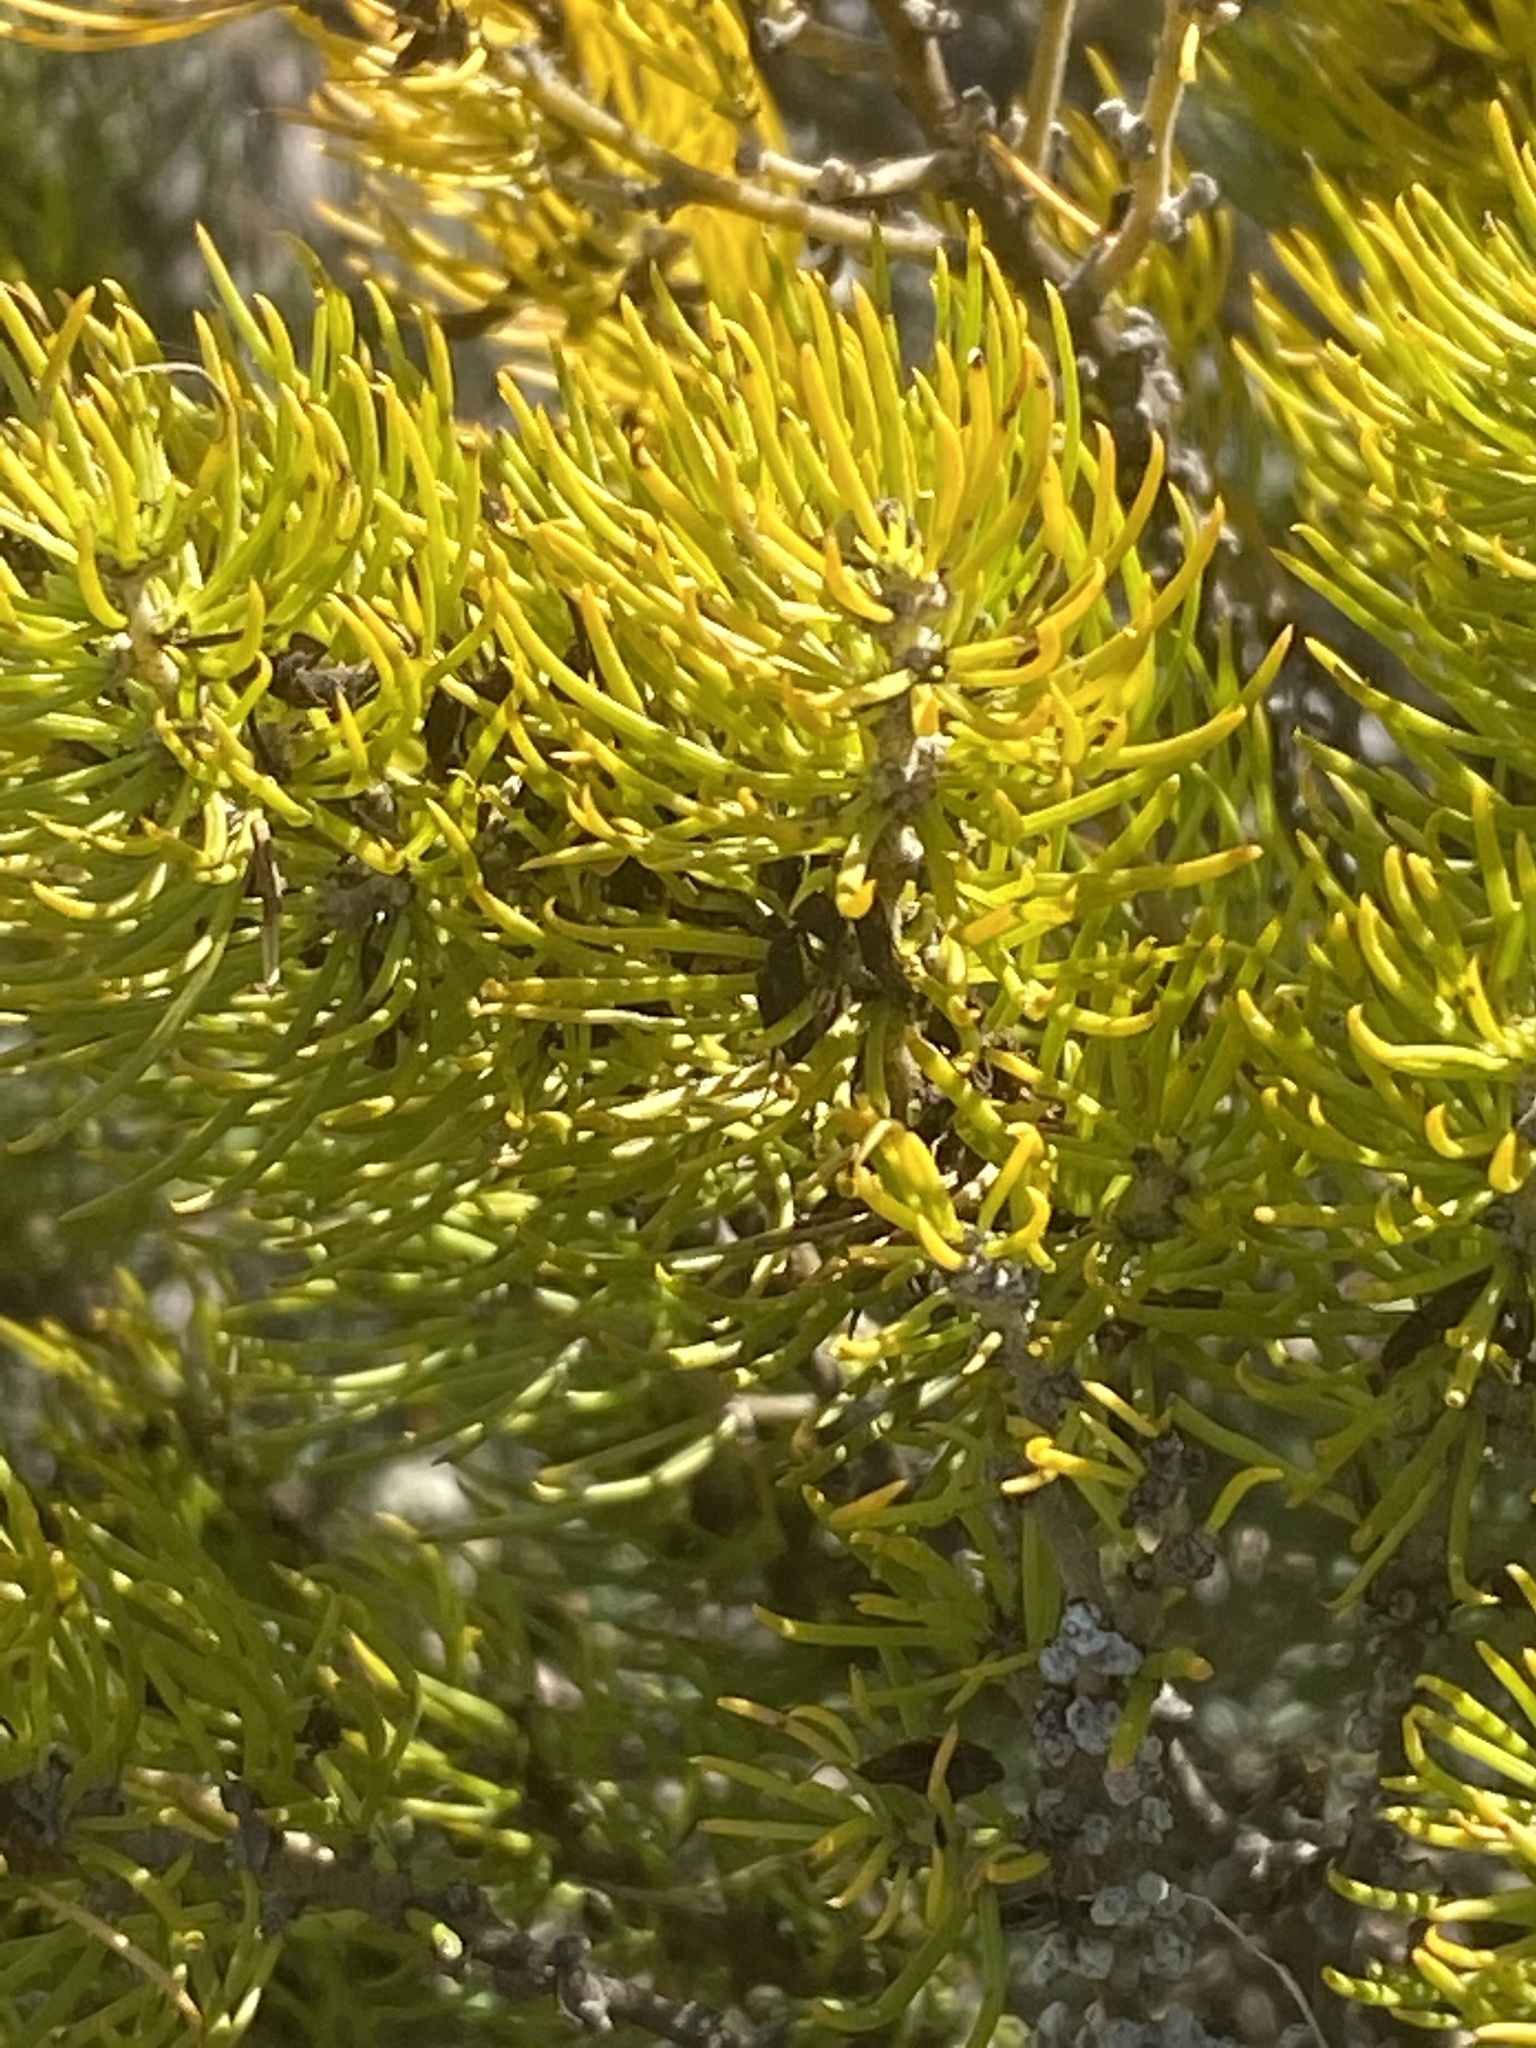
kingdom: Plantae
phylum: Tracheophyta
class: Magnoliopsida
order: Fabales
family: Fabaceae
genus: Aspalathus
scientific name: Aspalathus zeyheri
